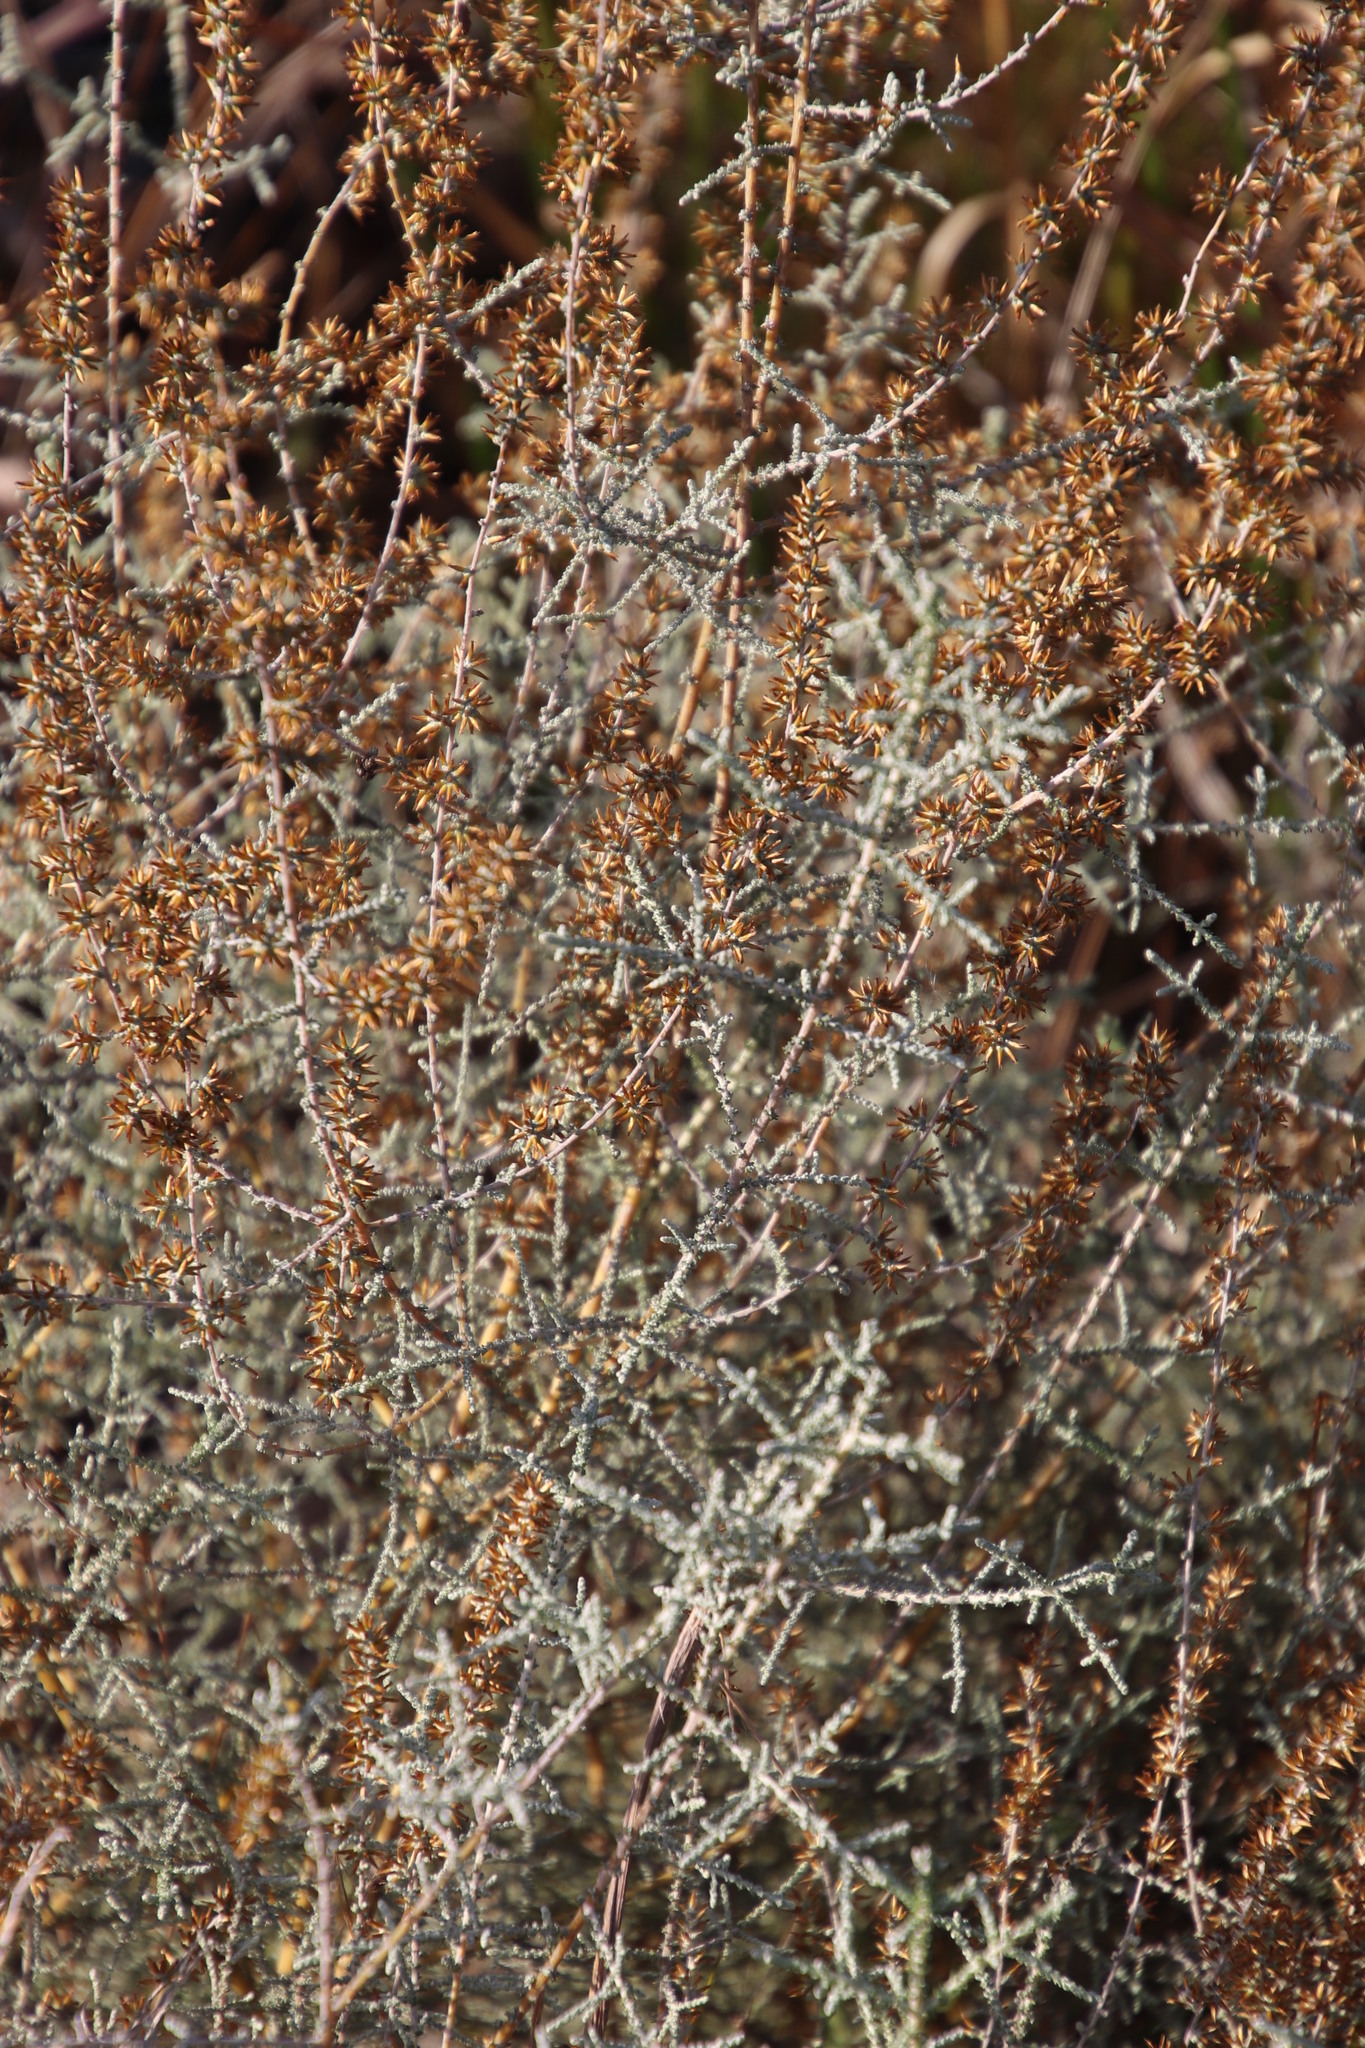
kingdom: Plantae
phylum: Tracheophyta
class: Magnoliopsida
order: Asterales
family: Asteraceae
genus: Seriphium
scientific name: Seriphium plumosum
